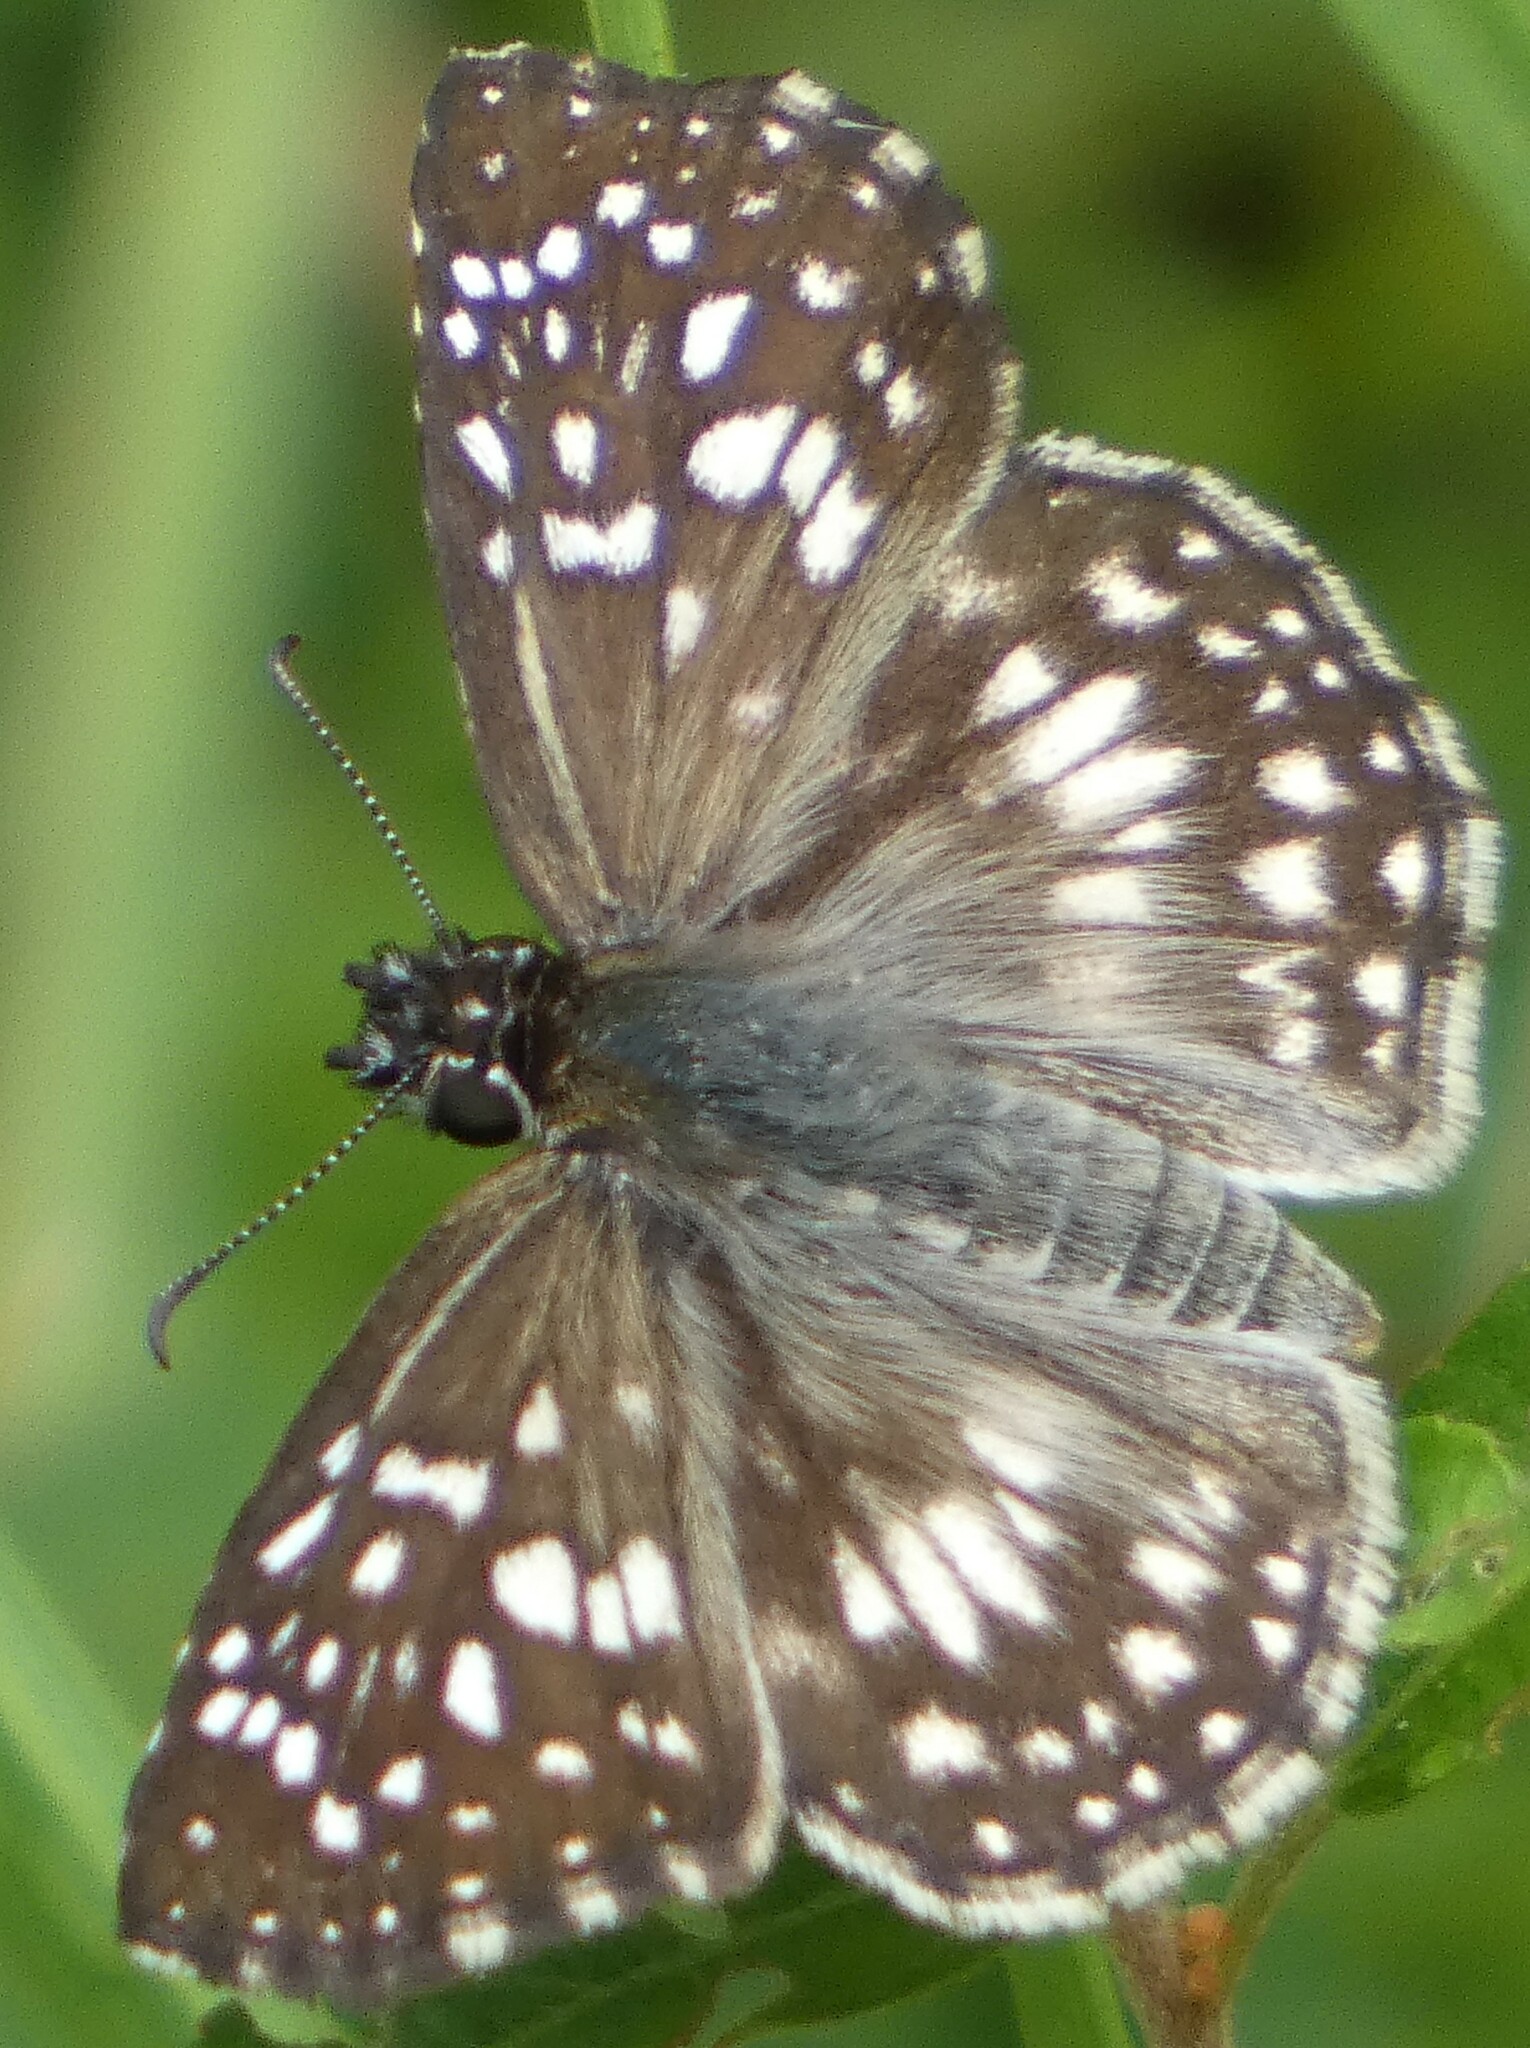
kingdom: Animalia
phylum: Arthropoda
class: Insecta
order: Lepidoptera
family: Hesperiidae
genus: Pyrgus
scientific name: Pyrgus oileus
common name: Tropical checkered-skipper
